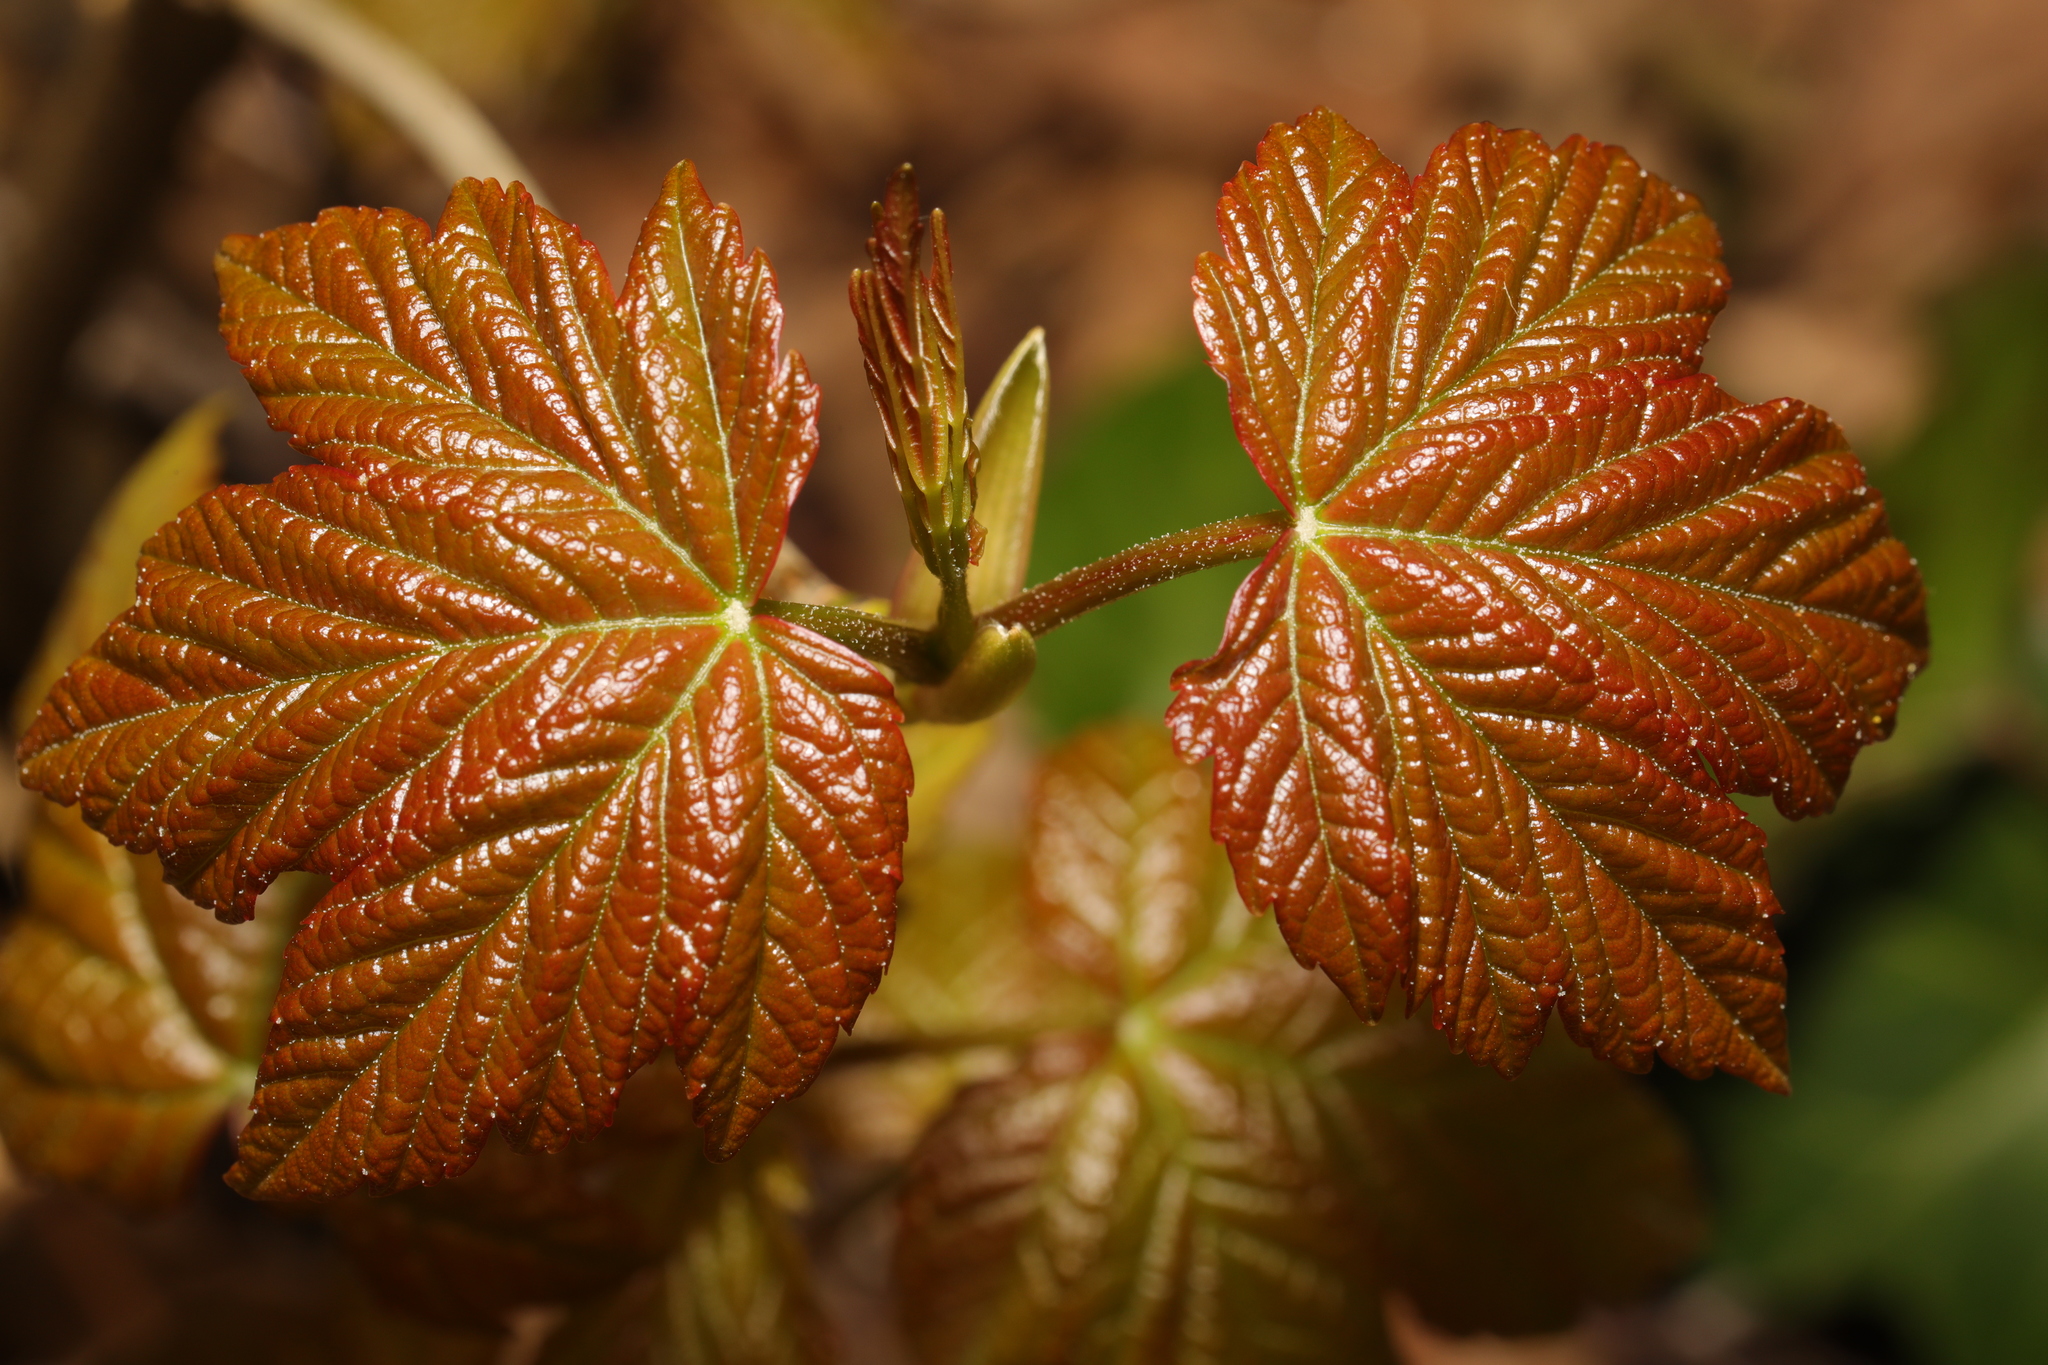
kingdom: Plantae
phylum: Tracheophyta
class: Magnoliopsida
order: Sapindales
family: Sapindaceae
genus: Acer
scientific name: Acer pseudoplatanus
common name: Sycamore
